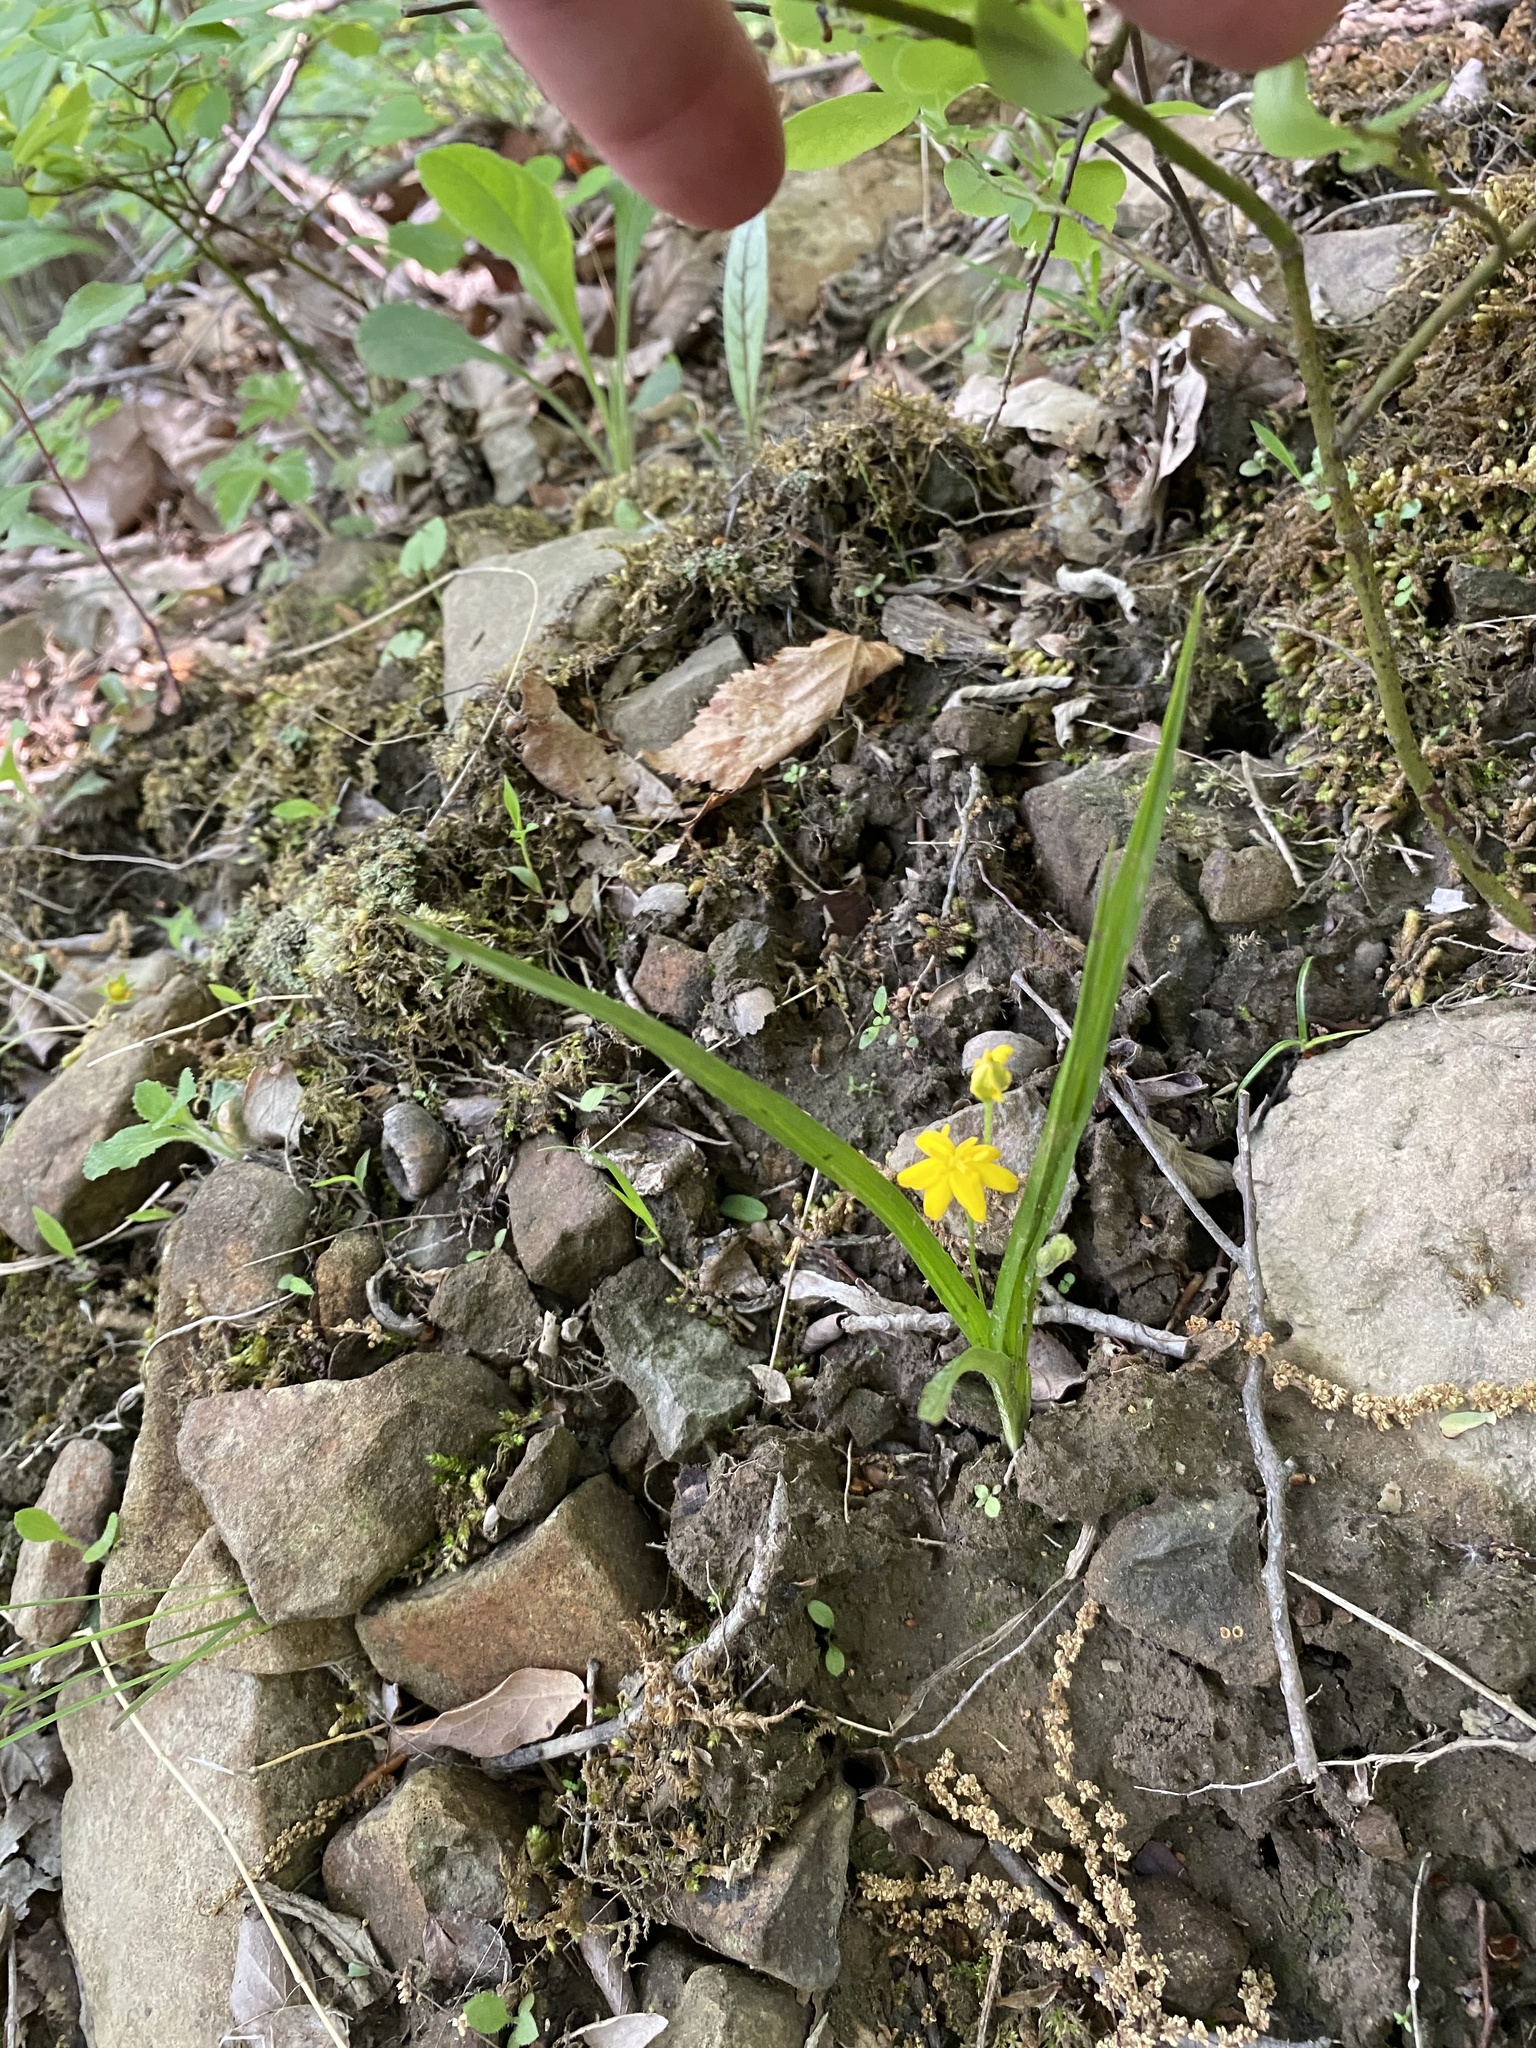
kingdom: Plantae
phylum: Tracheophyta
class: Liliopsida
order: Asparagales
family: Hypoxidaceae
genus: Hypoxis
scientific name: Hypoxis hirsuta
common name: Common goldstar
